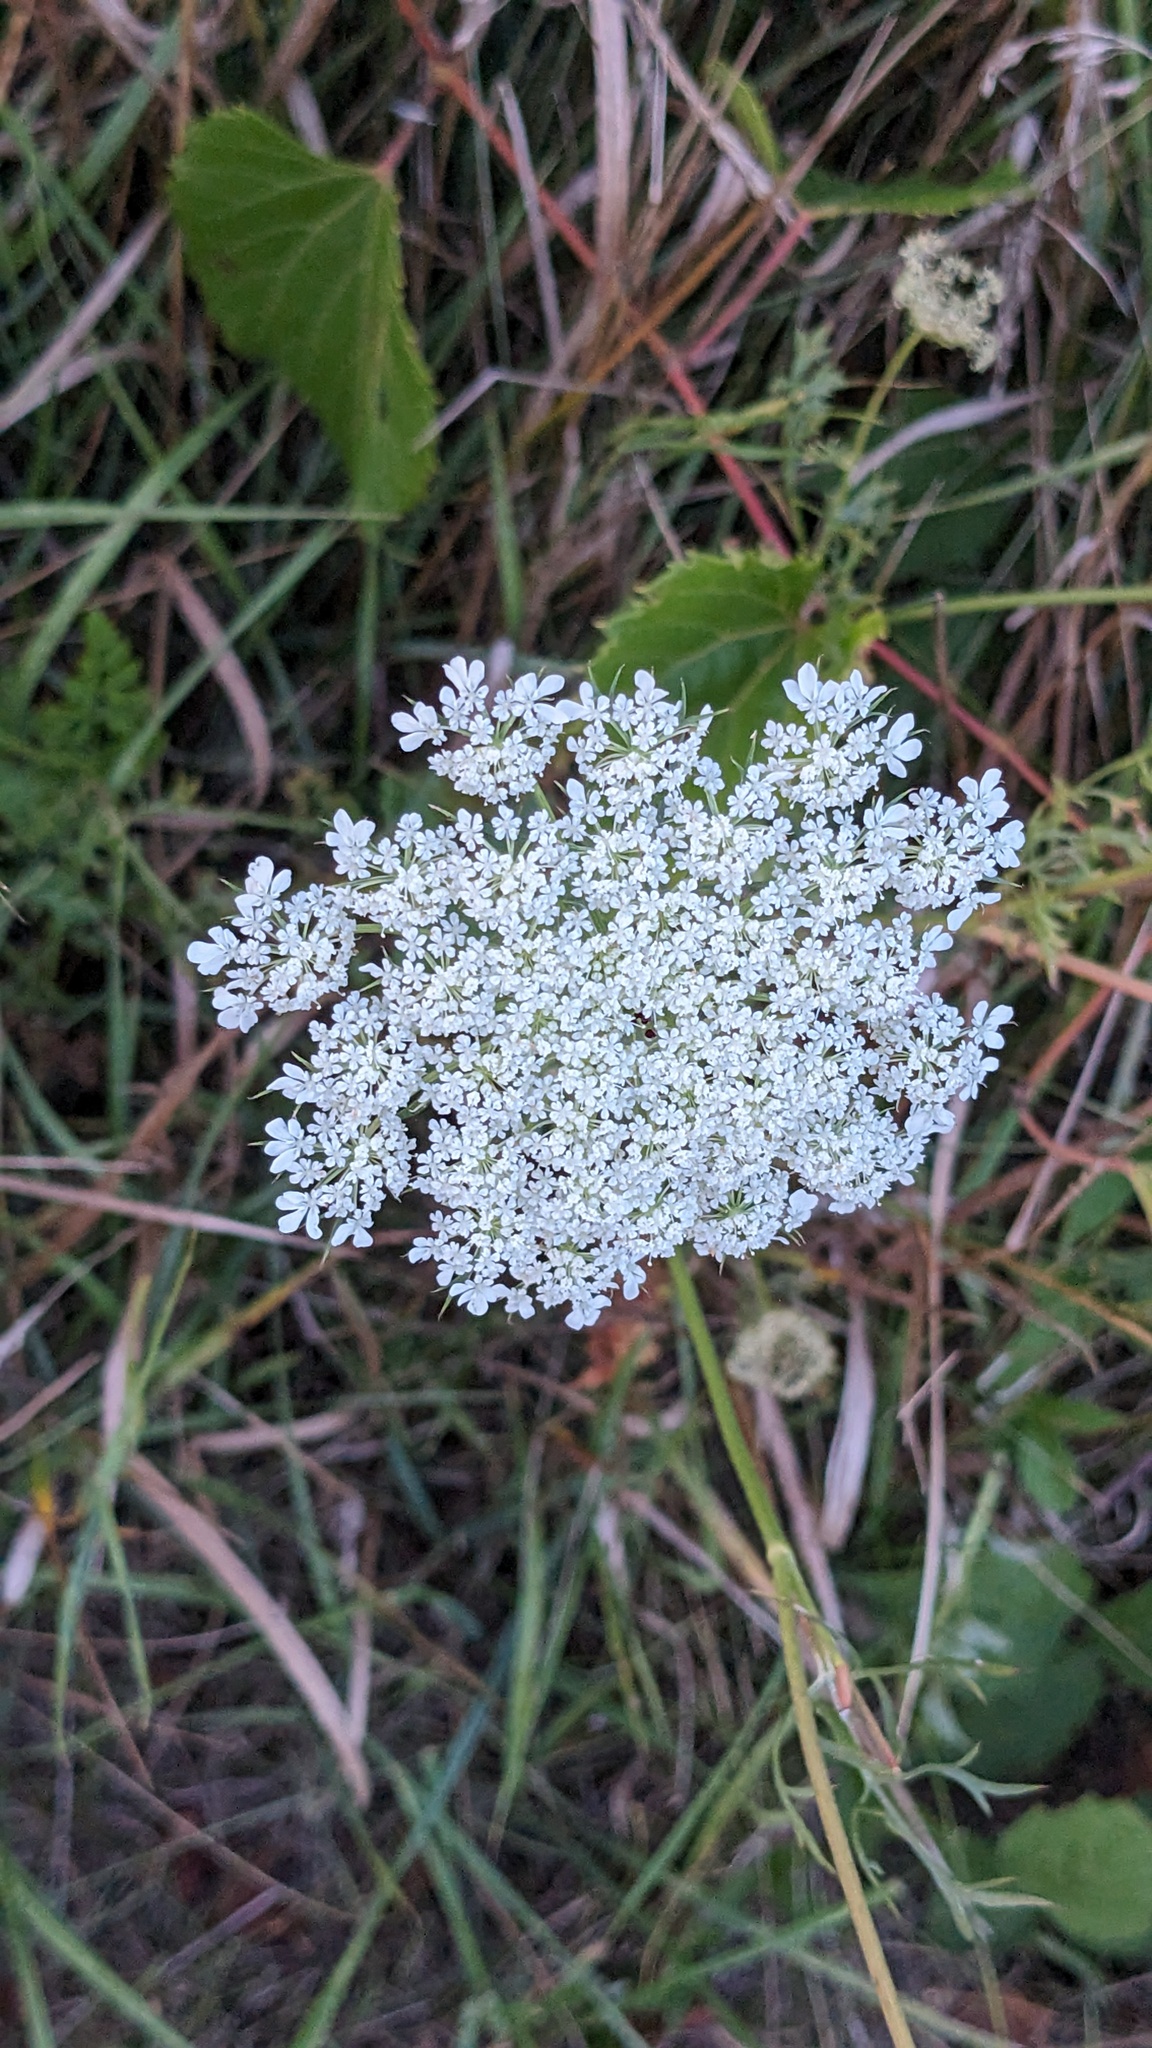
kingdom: Plantae
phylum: Tracheophyta
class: Magnoliopsida
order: Apiales
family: Apiaceae
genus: Daucus
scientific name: Daucus carota
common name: Wild carrot
